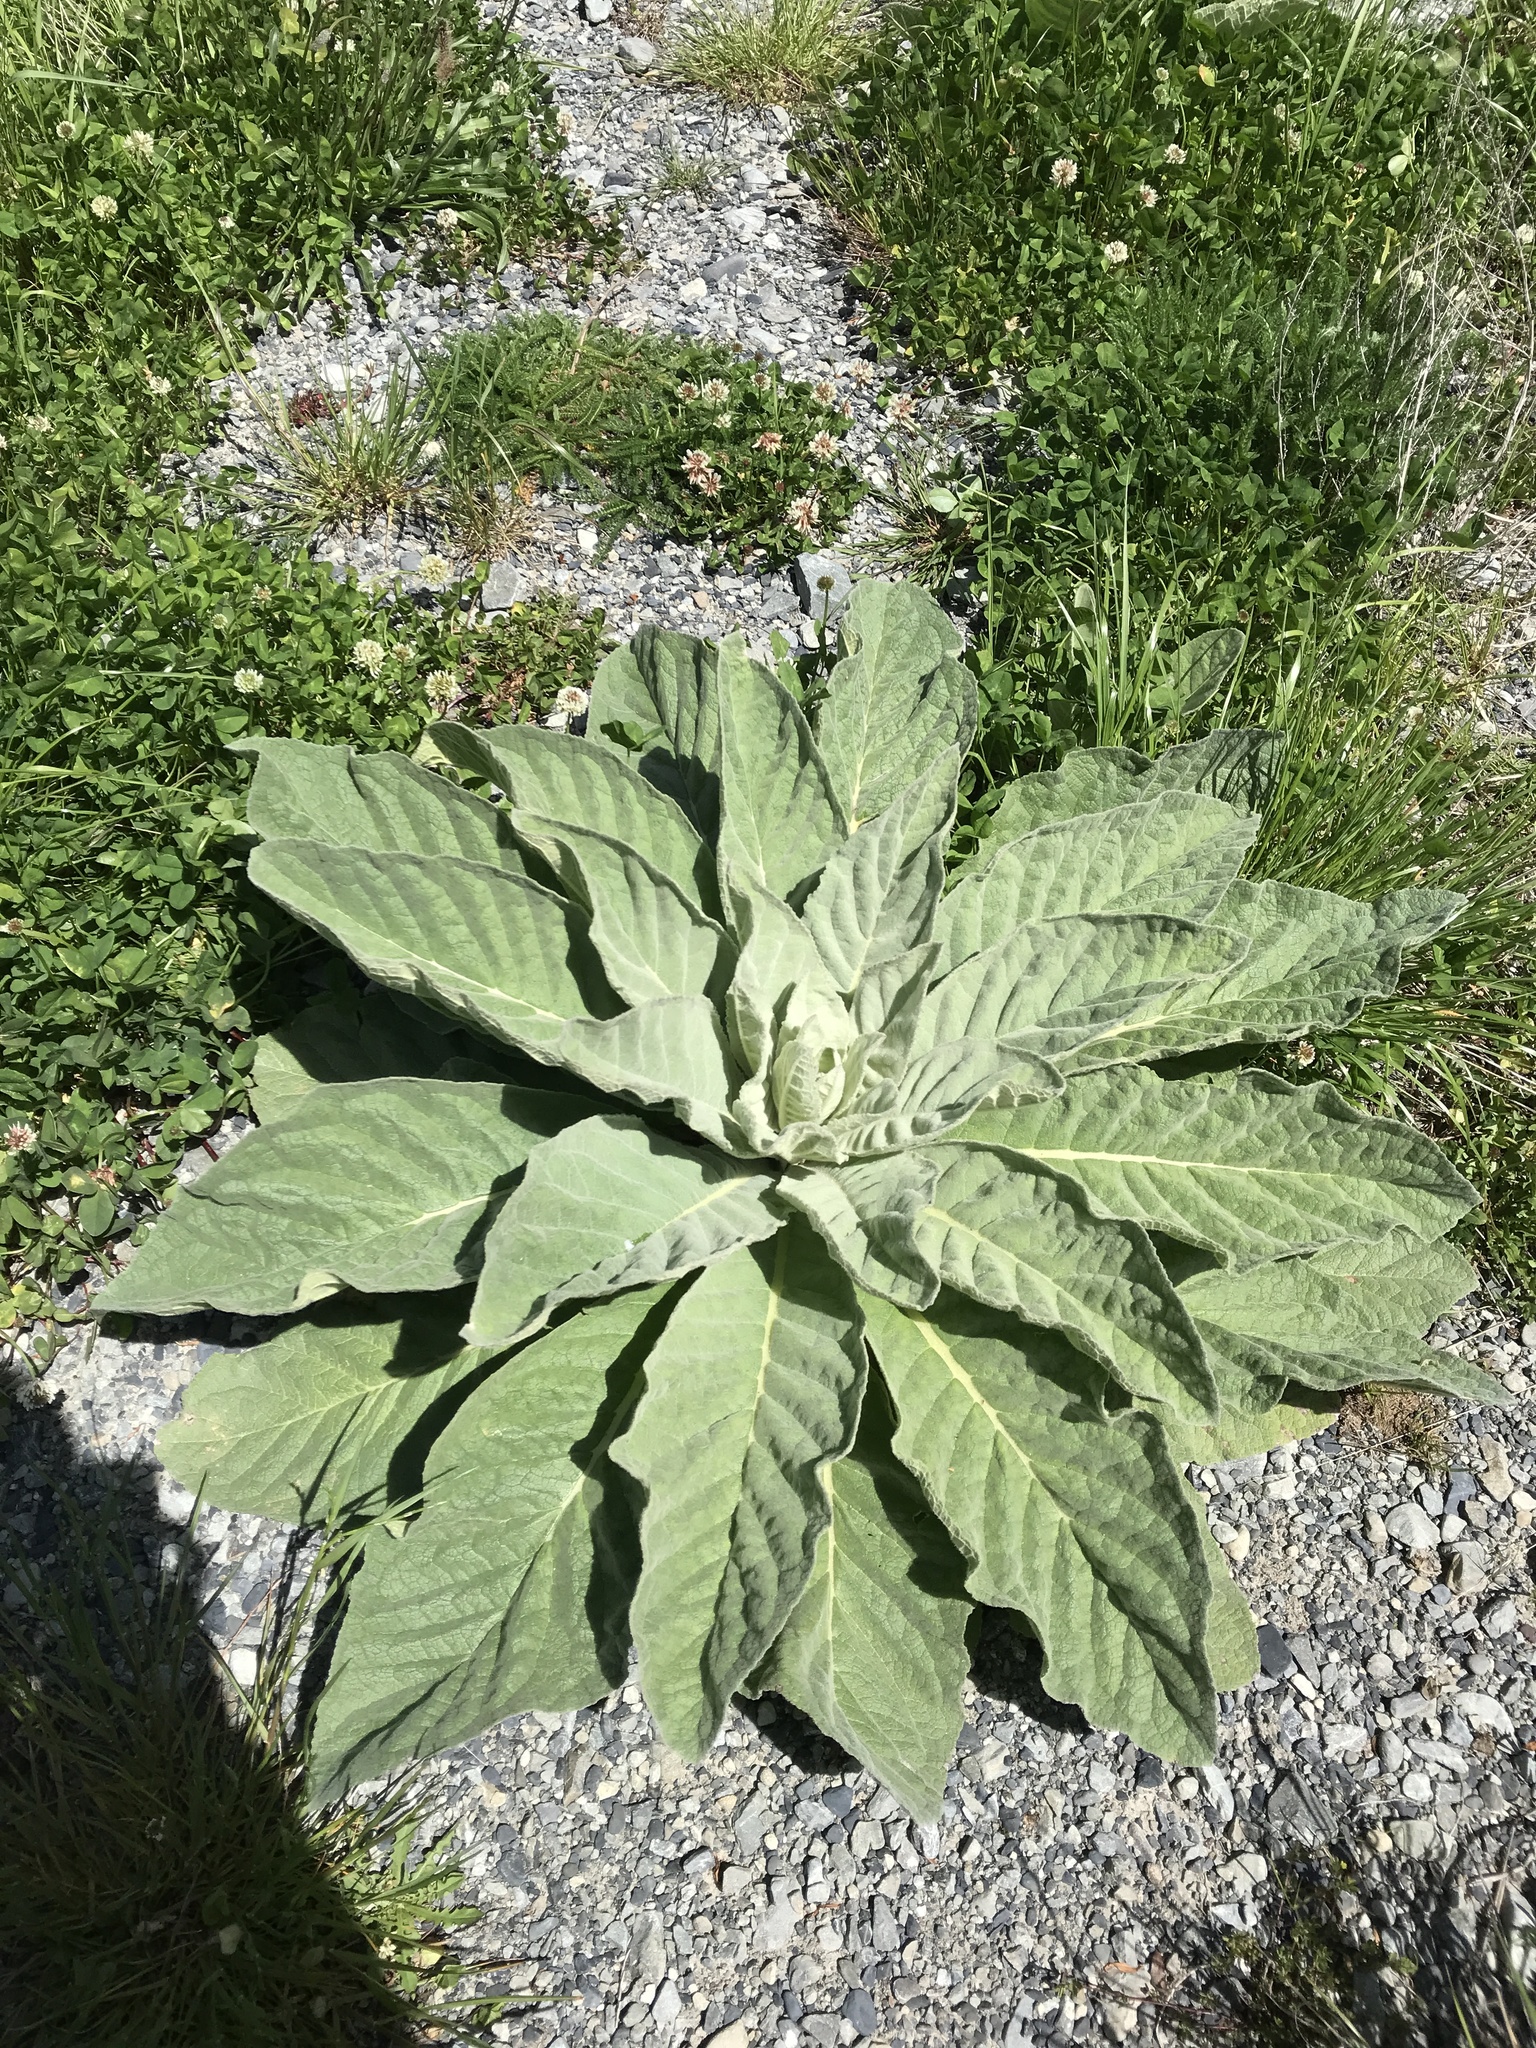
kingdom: Plantae
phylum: Tracheophyta
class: Magnoliopsida
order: Lamiales
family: Scrophulariaceae
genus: Verbascum
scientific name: Verbascum thapsus
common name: Common mullein
